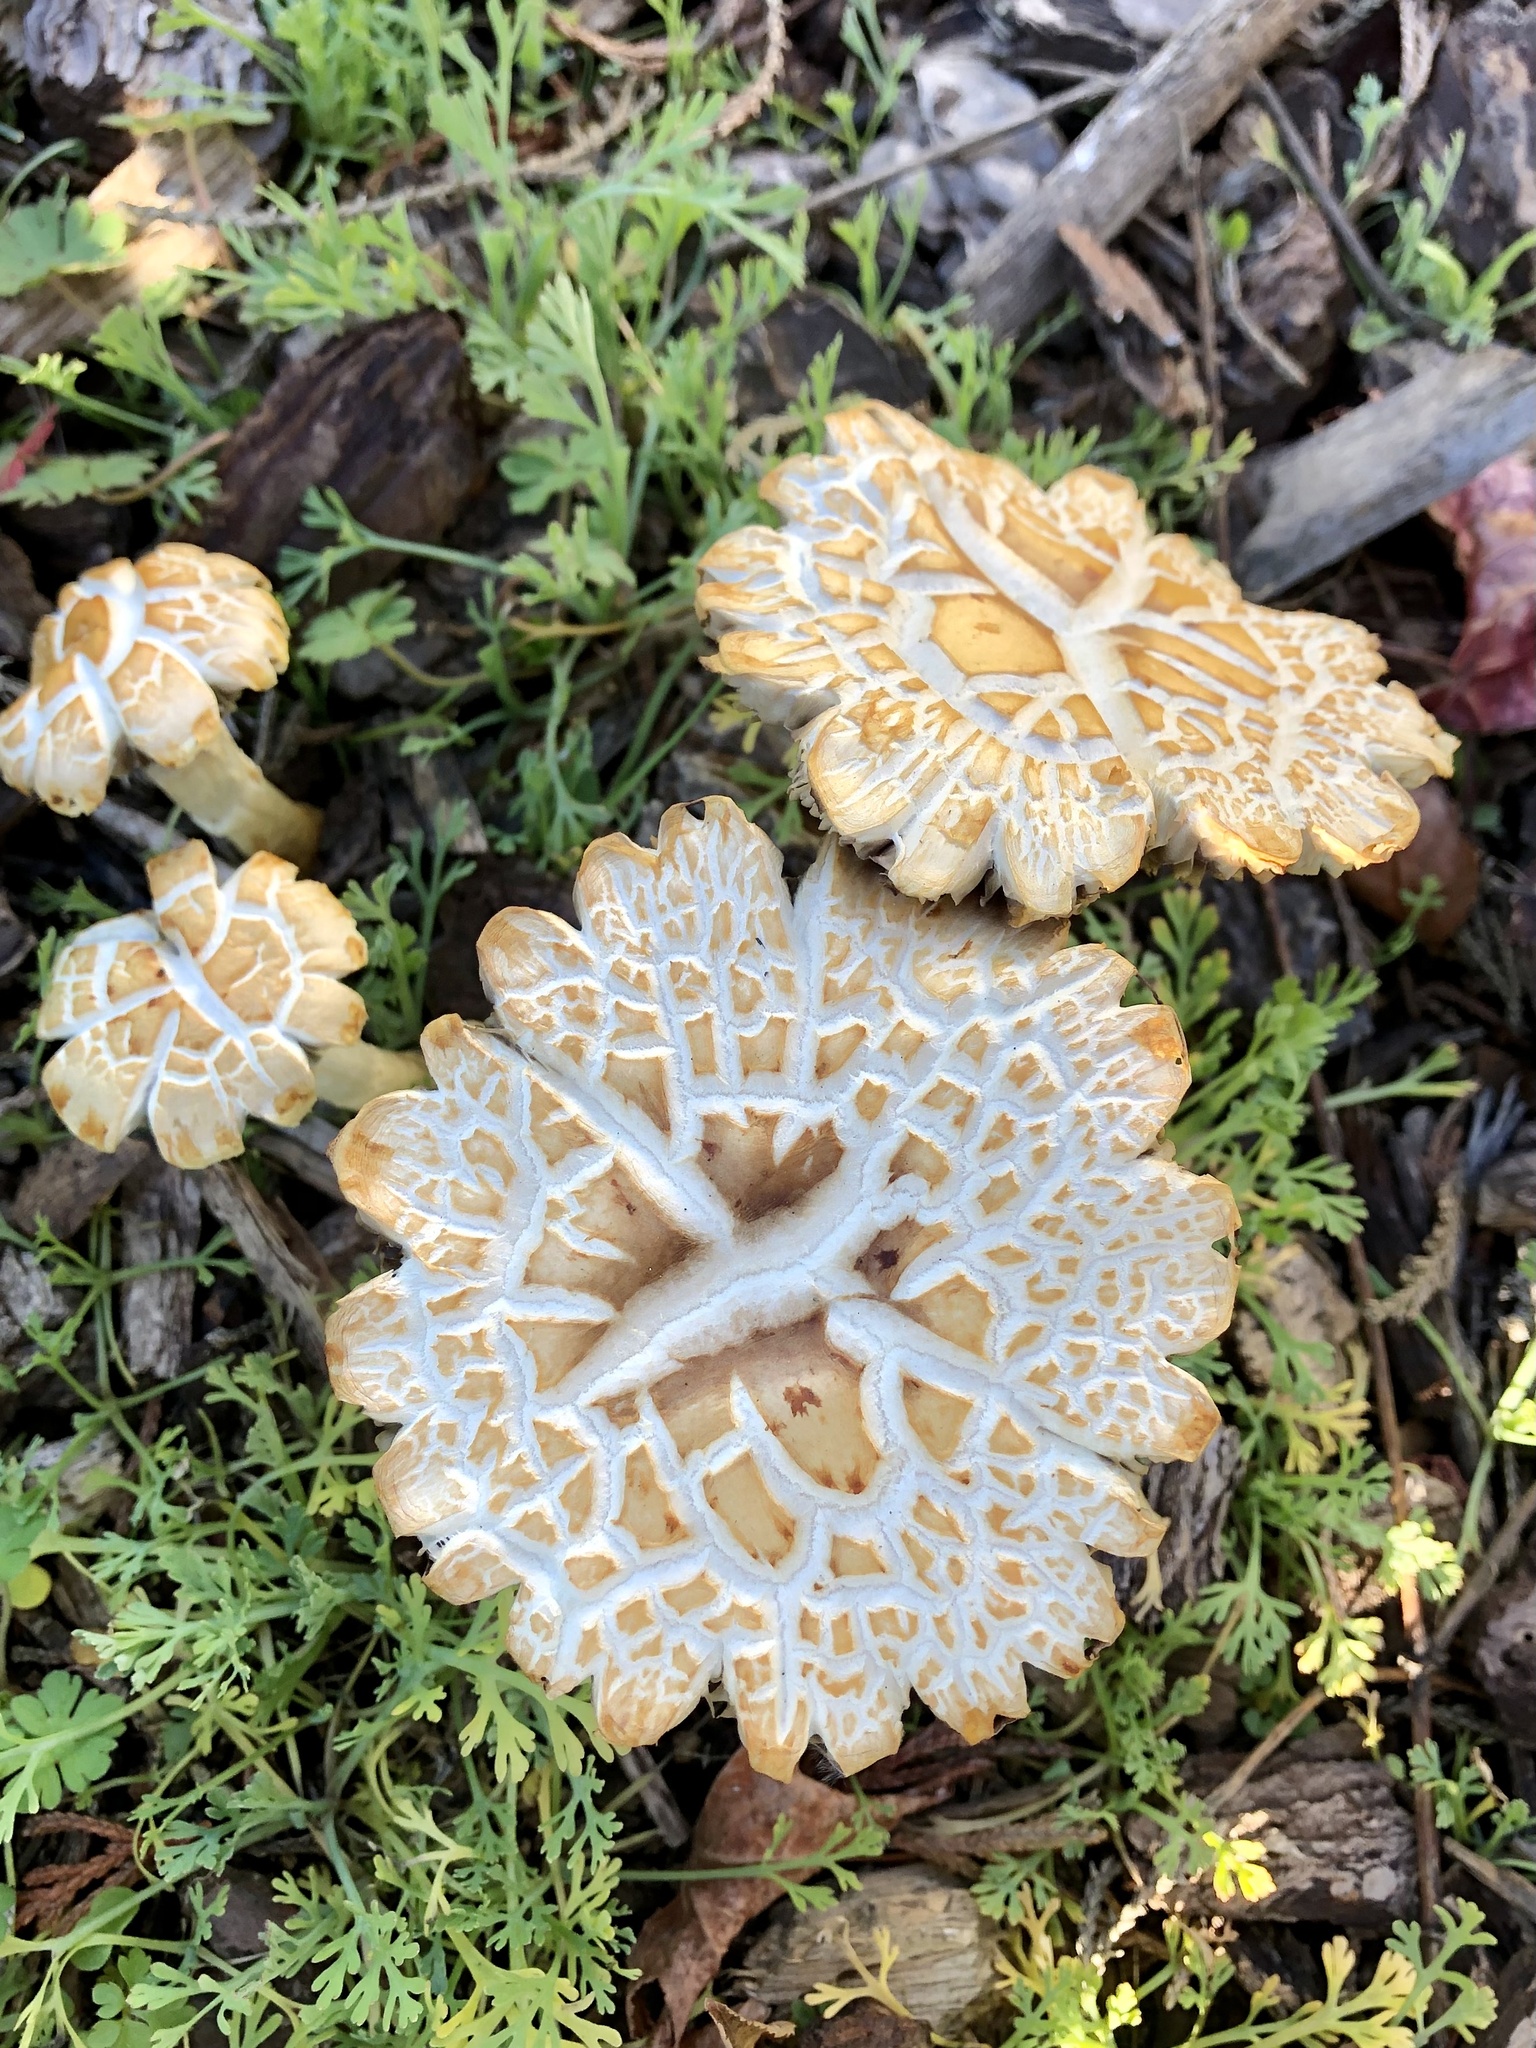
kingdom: Fungi
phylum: Basidiomycota
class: Agaricomycetes
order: Agaricales
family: Strophariaceae
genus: Leratiomyces
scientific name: Leratiomyces percevalii
